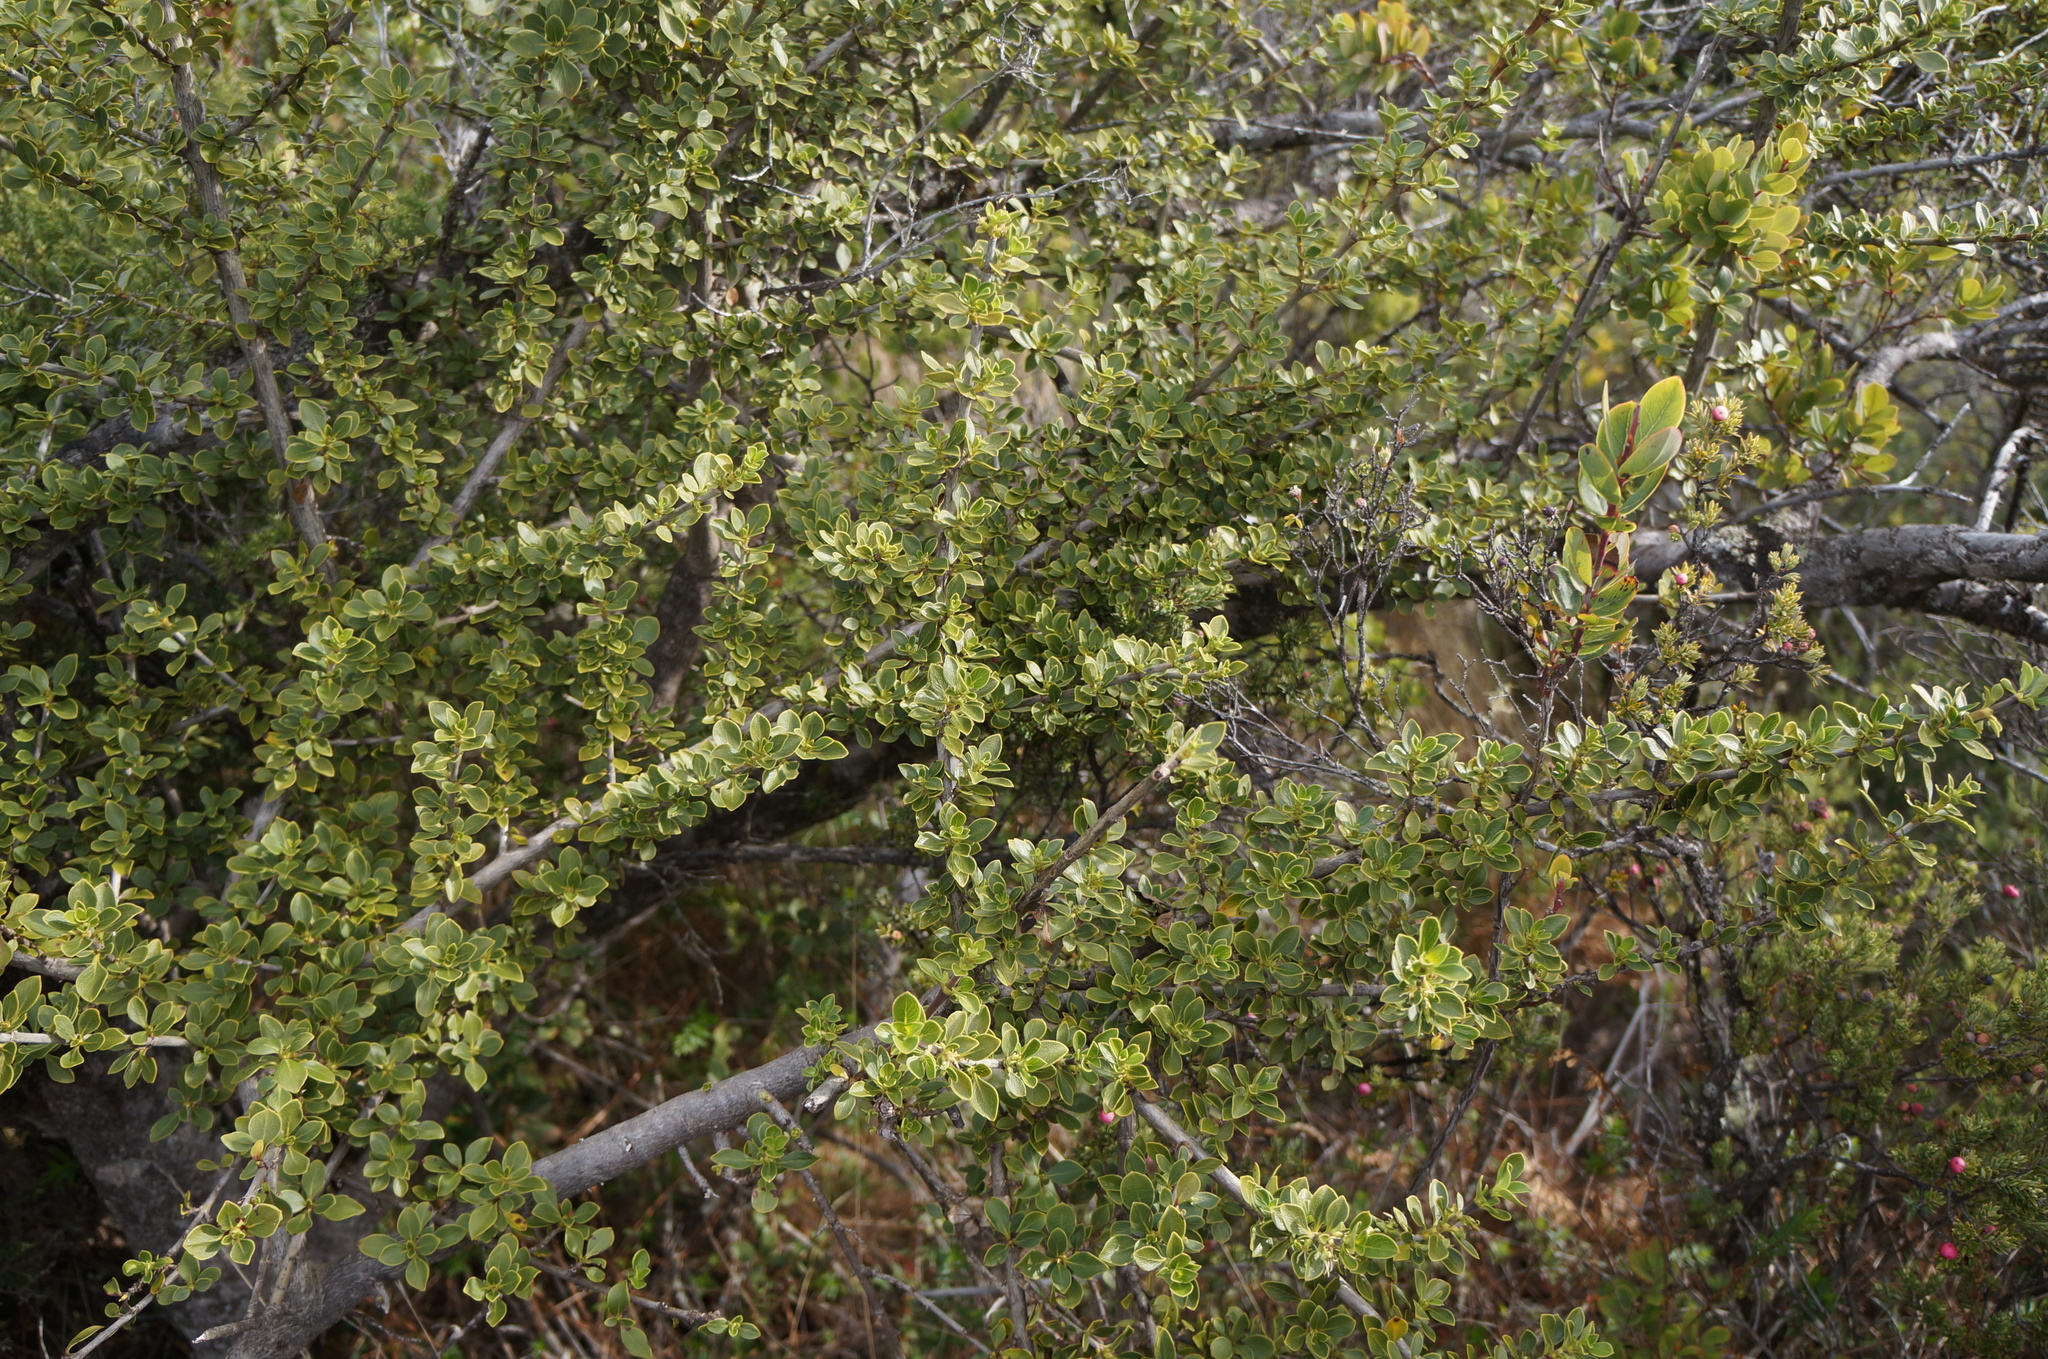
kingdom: Plantae
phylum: Tracheophyta
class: Magnoliopsida
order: Gentianales
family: Rubiaceae
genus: Coprosma
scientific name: Coprosma montana
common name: Alpine mirror plant
